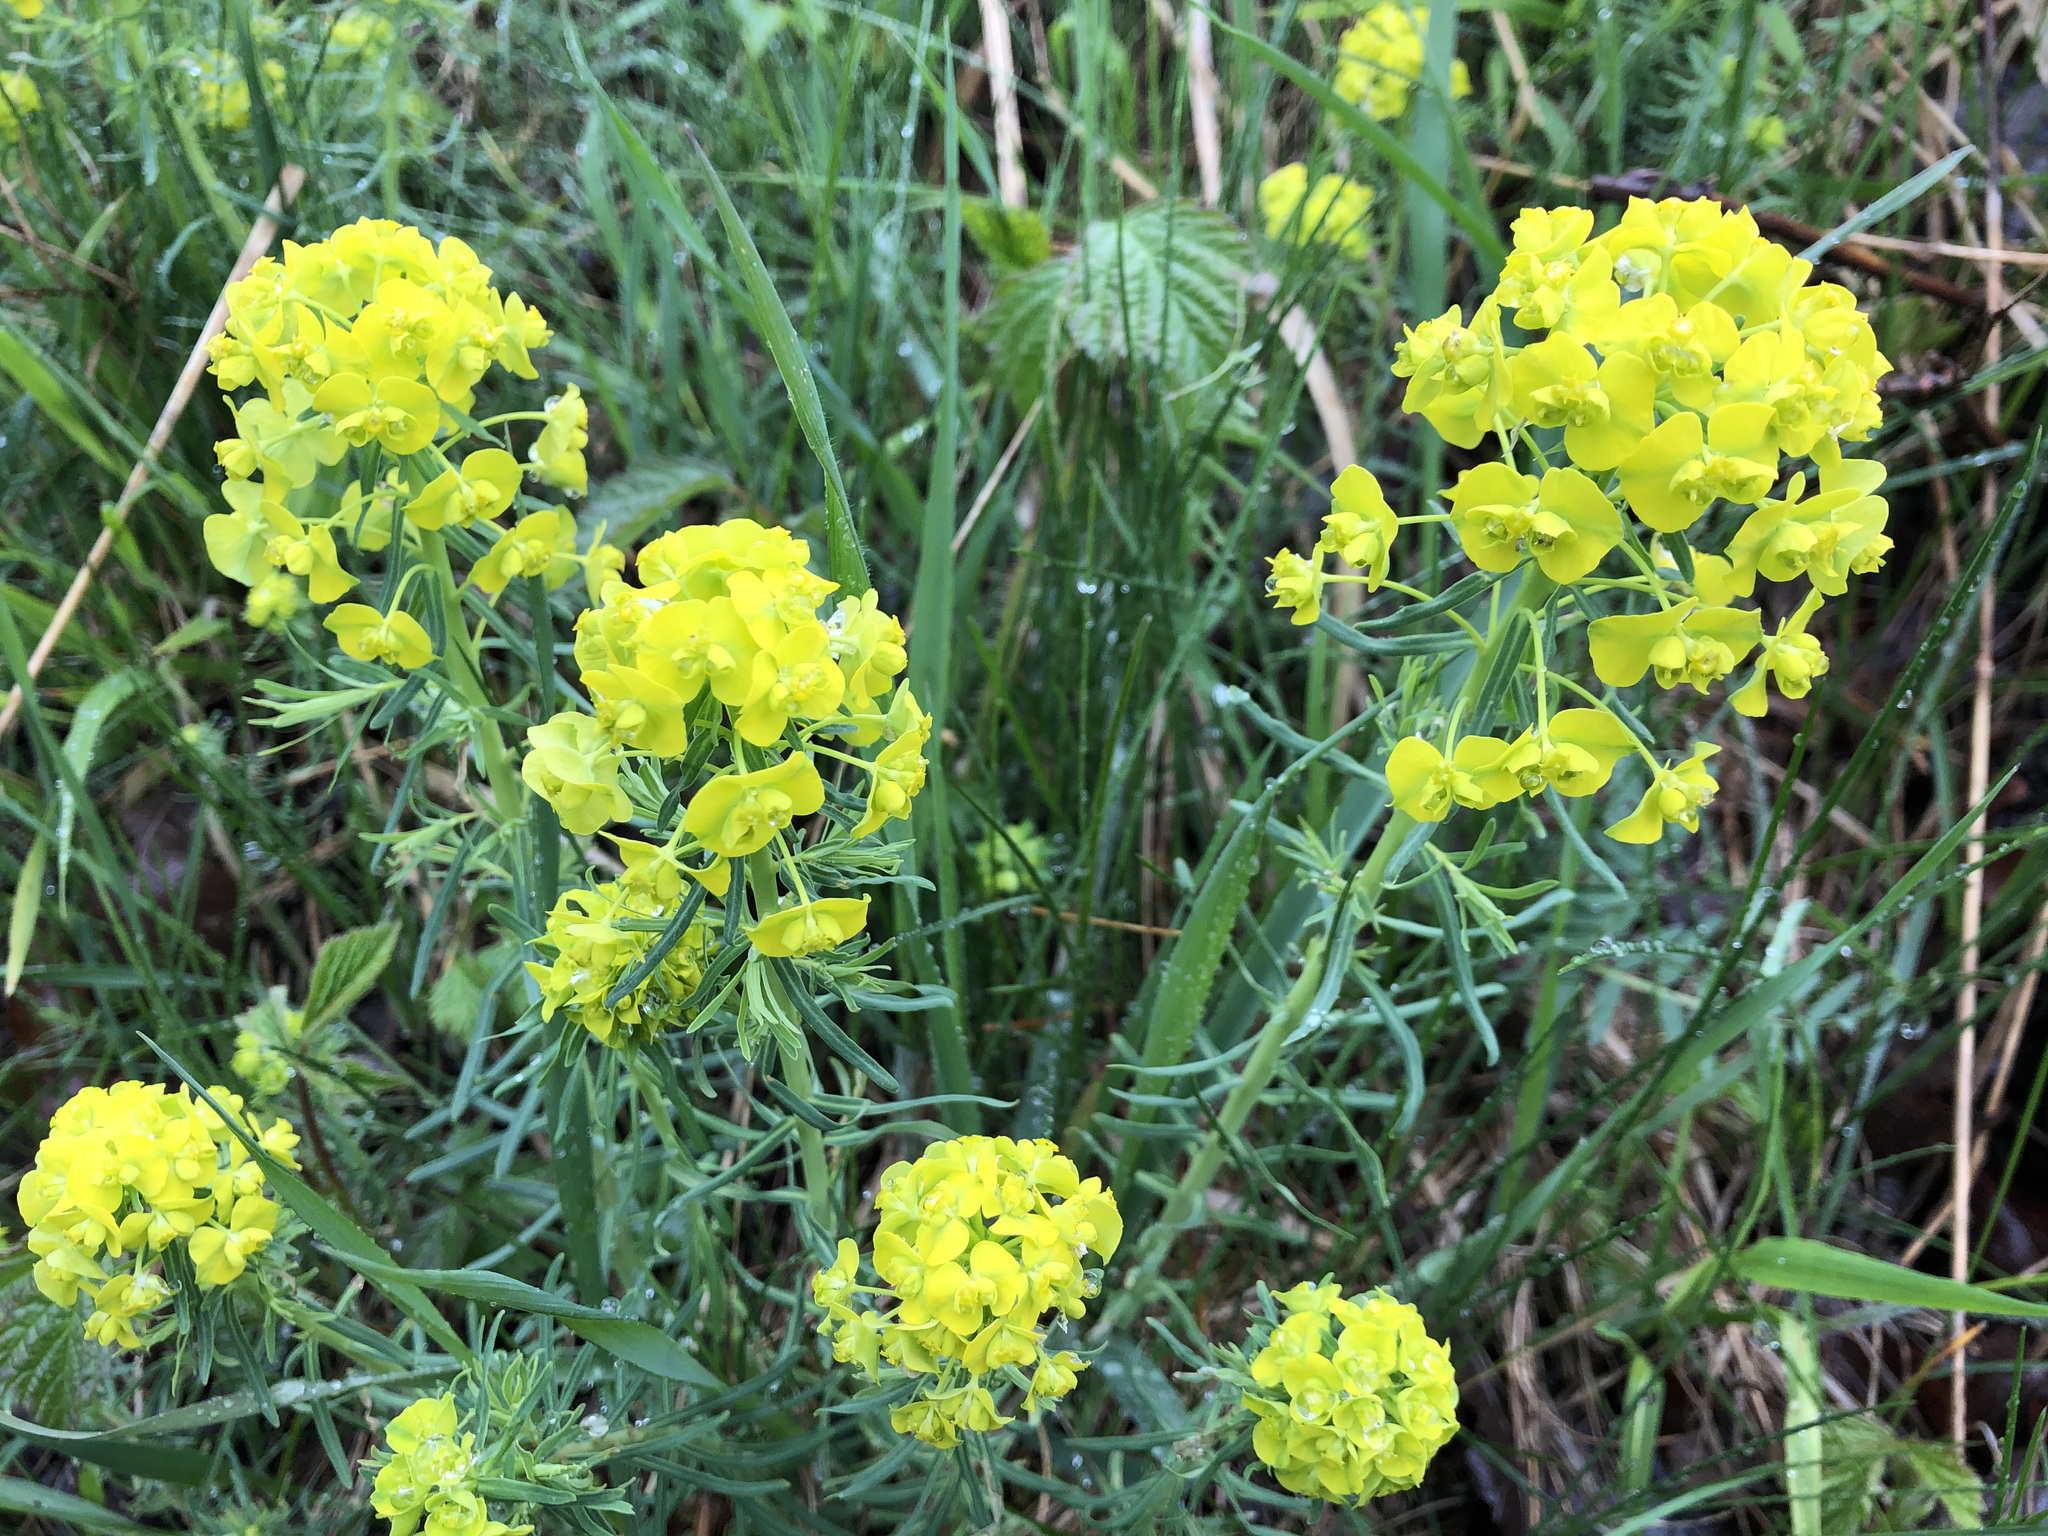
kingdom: Plantae
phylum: Tracheophyta
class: Magnoliopsida
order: Malpighiales
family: Euphorbiaceae
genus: Euphorbia
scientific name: Euphorbia cyparissias
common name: Cypress spurge
